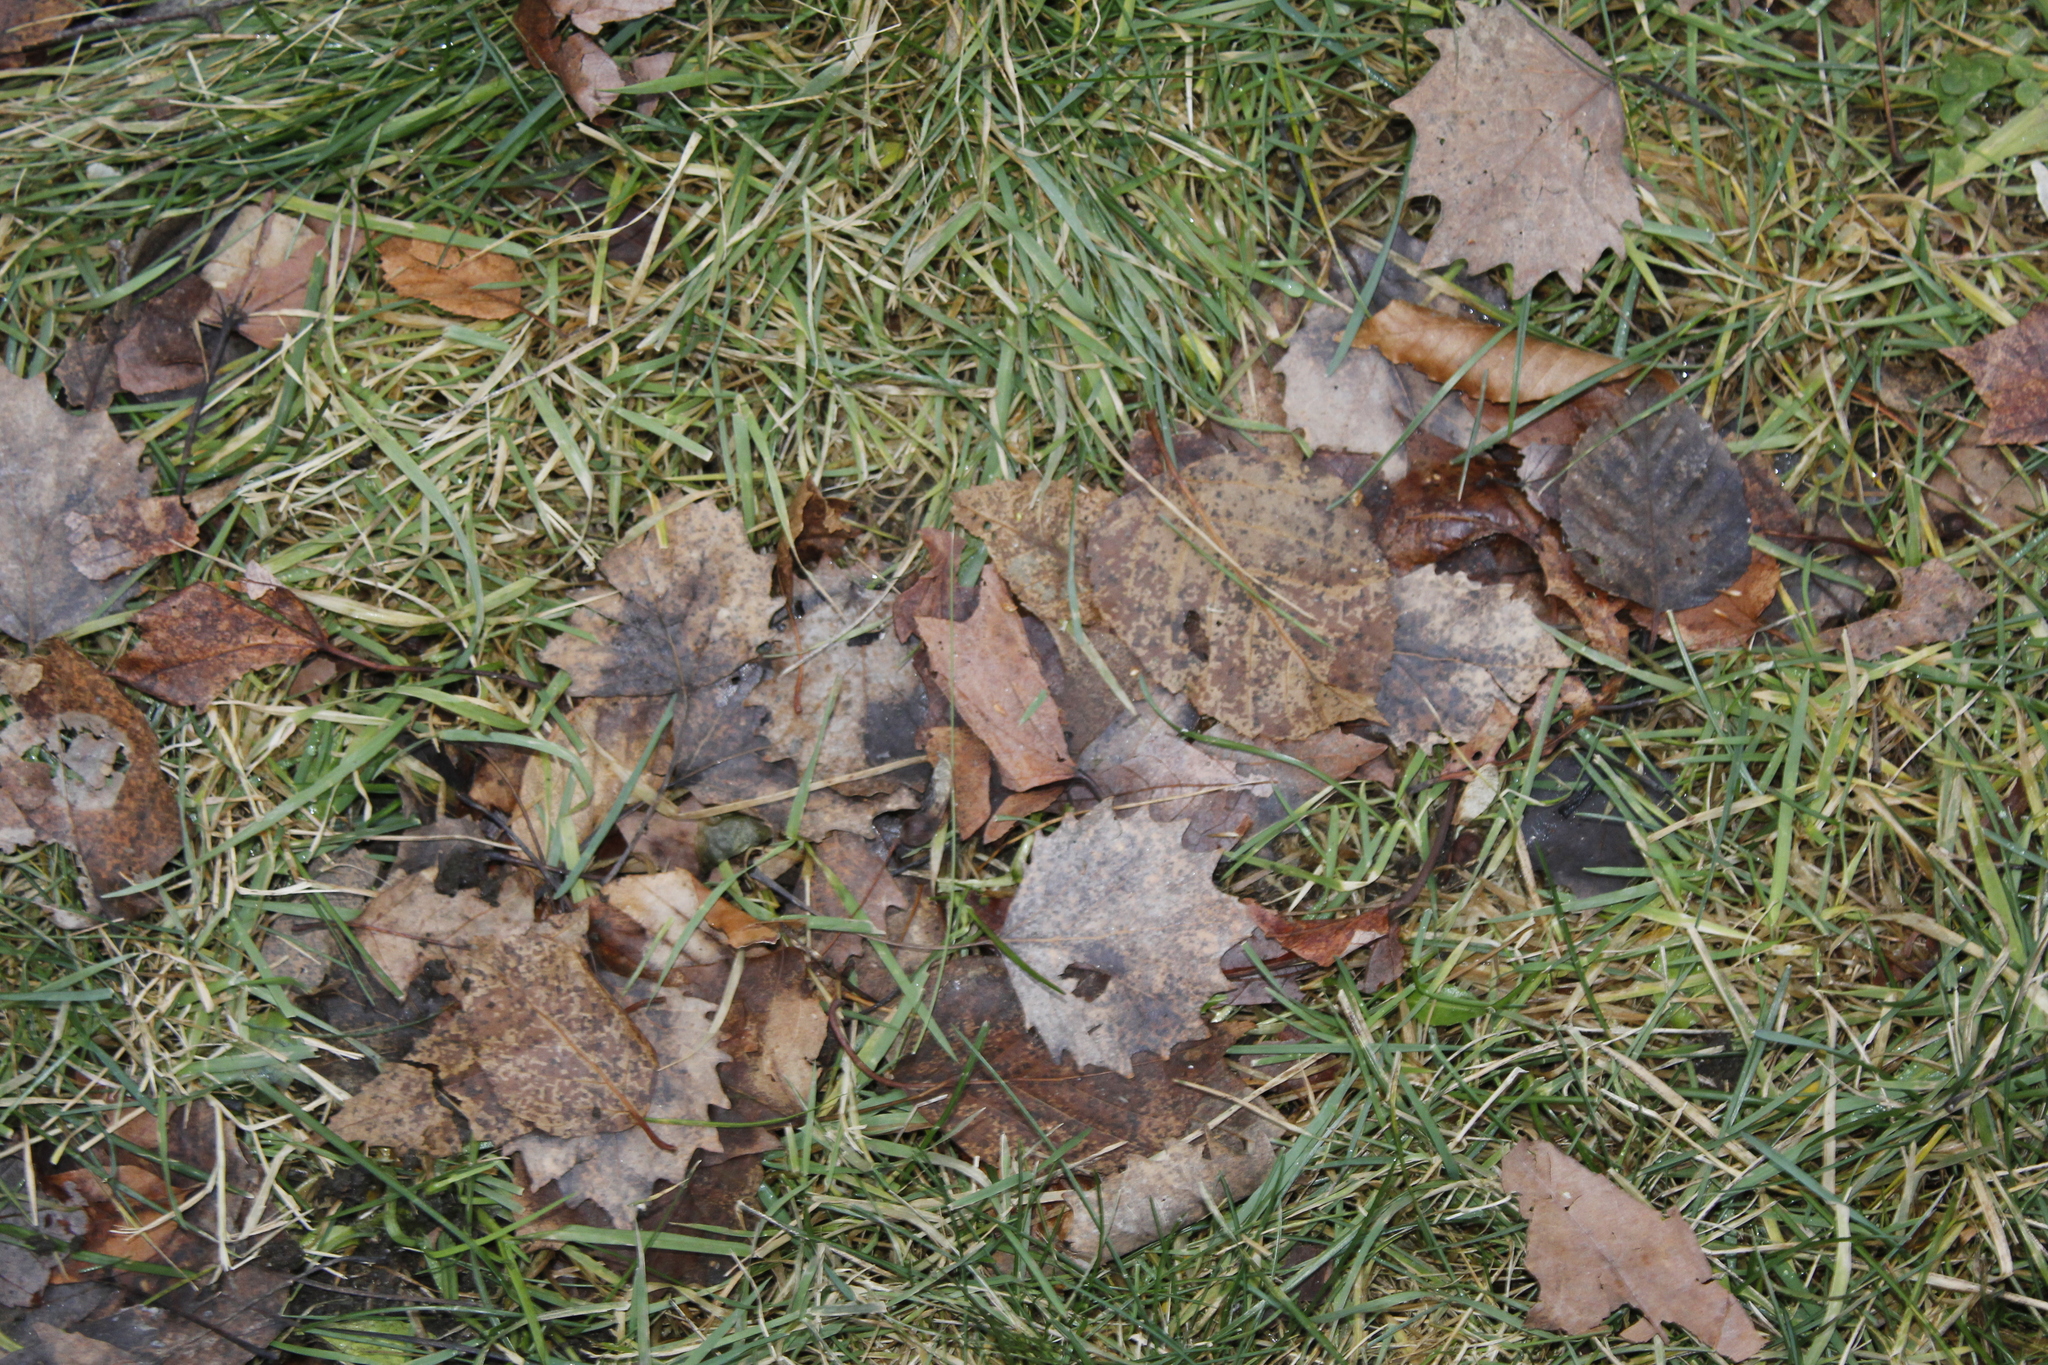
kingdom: Plantae
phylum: Tracheophyta
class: Magnoliopsida
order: Malpighiales
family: Salicaceae
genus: Populus
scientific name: Populus grandidentata
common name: Bigtooth aspen
